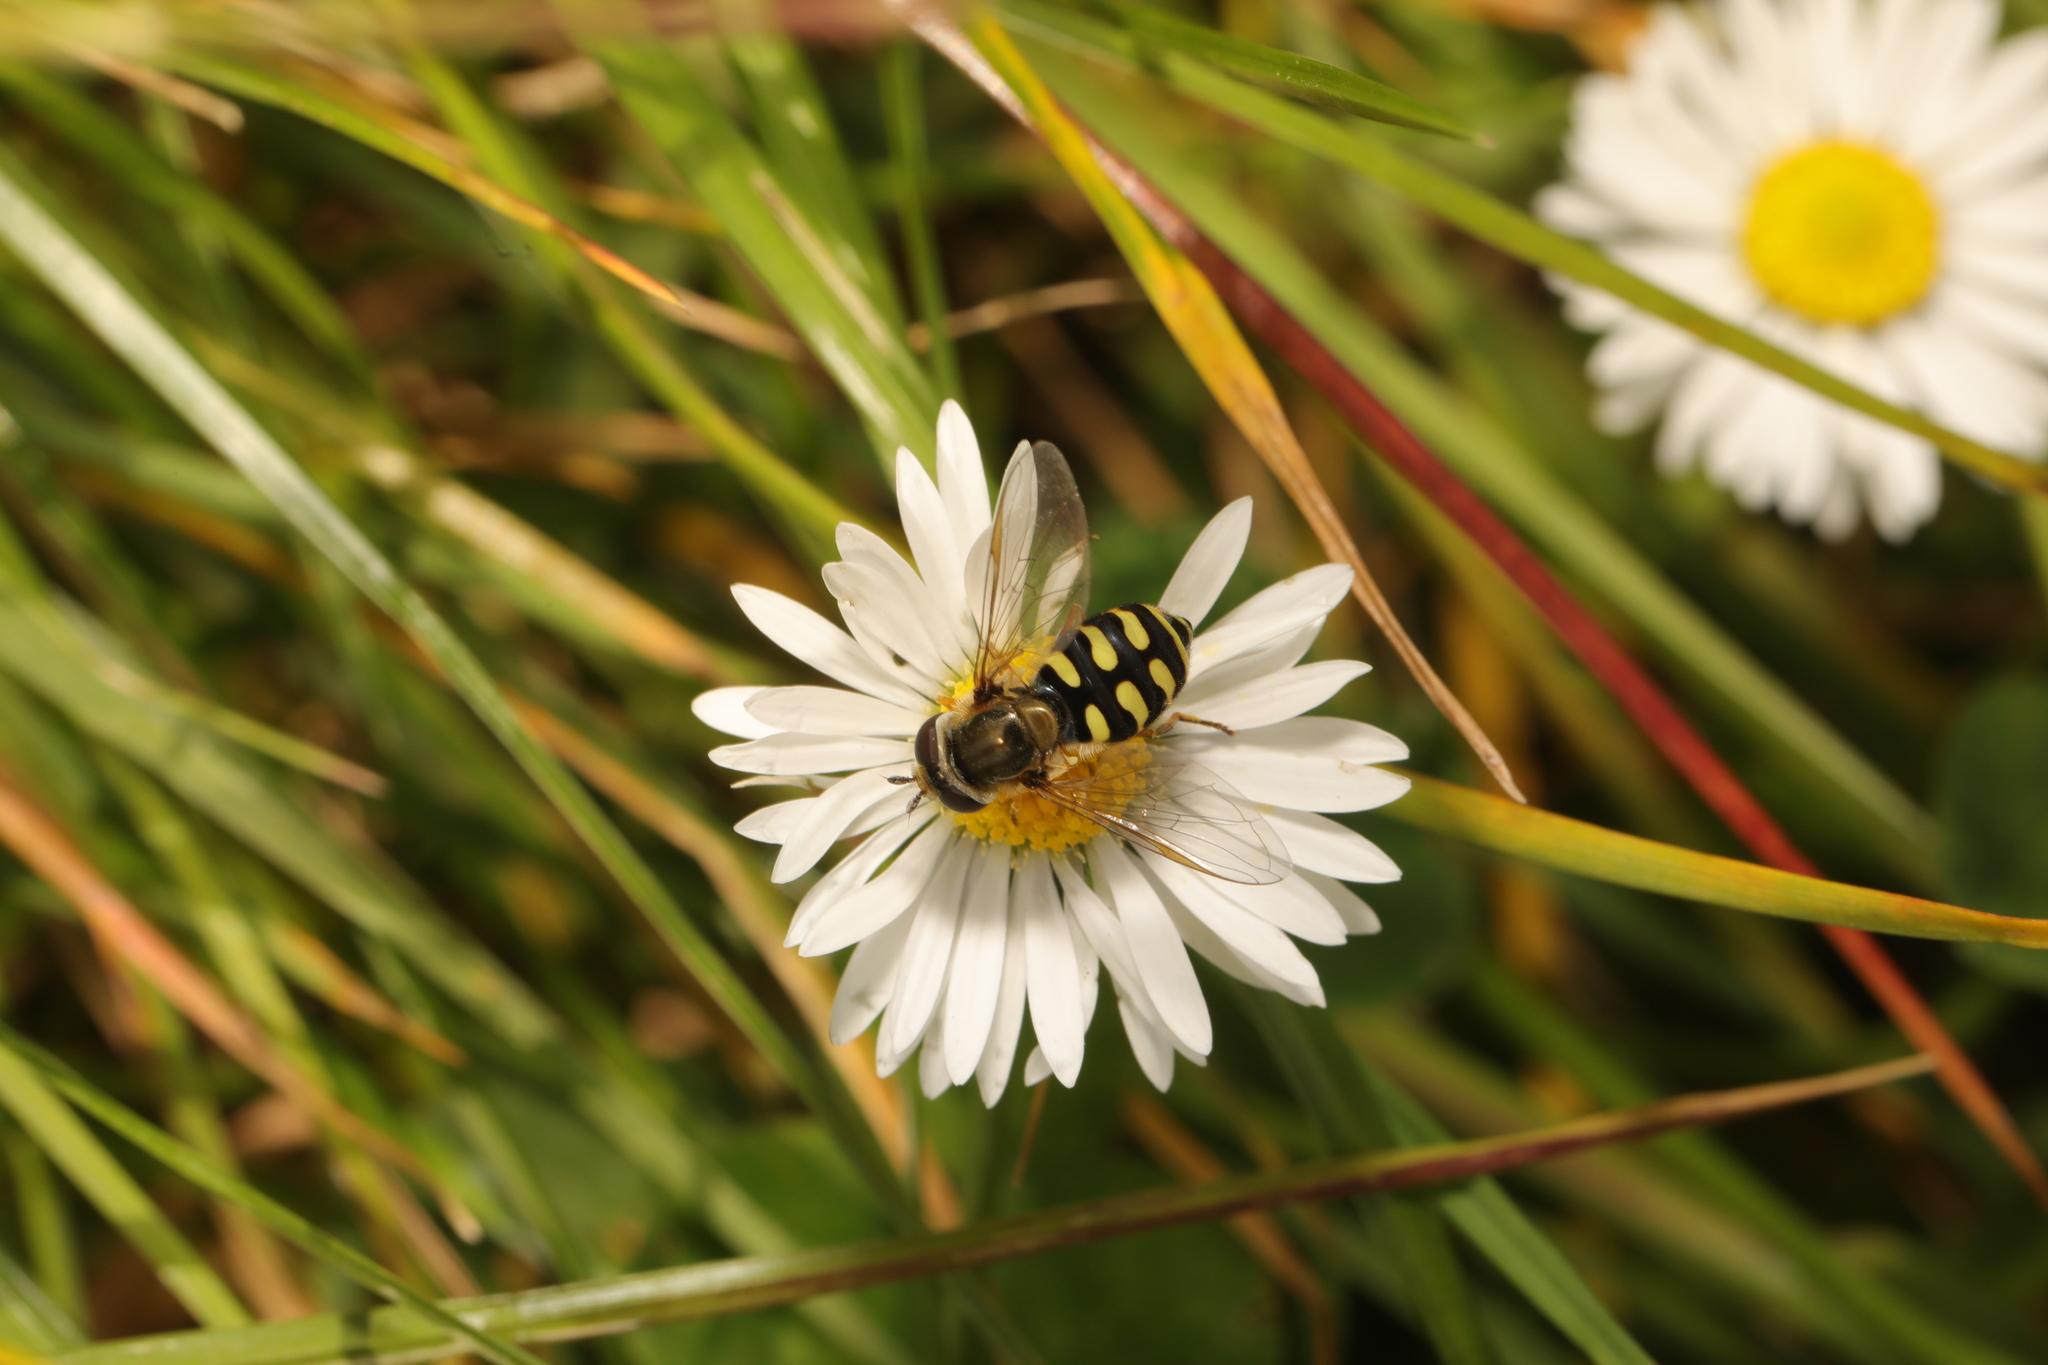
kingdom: Animalia
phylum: Arthropoda
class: Insecta
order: Diptera
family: Syrphidae
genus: Eupeodes
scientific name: Eupeodes corollae
